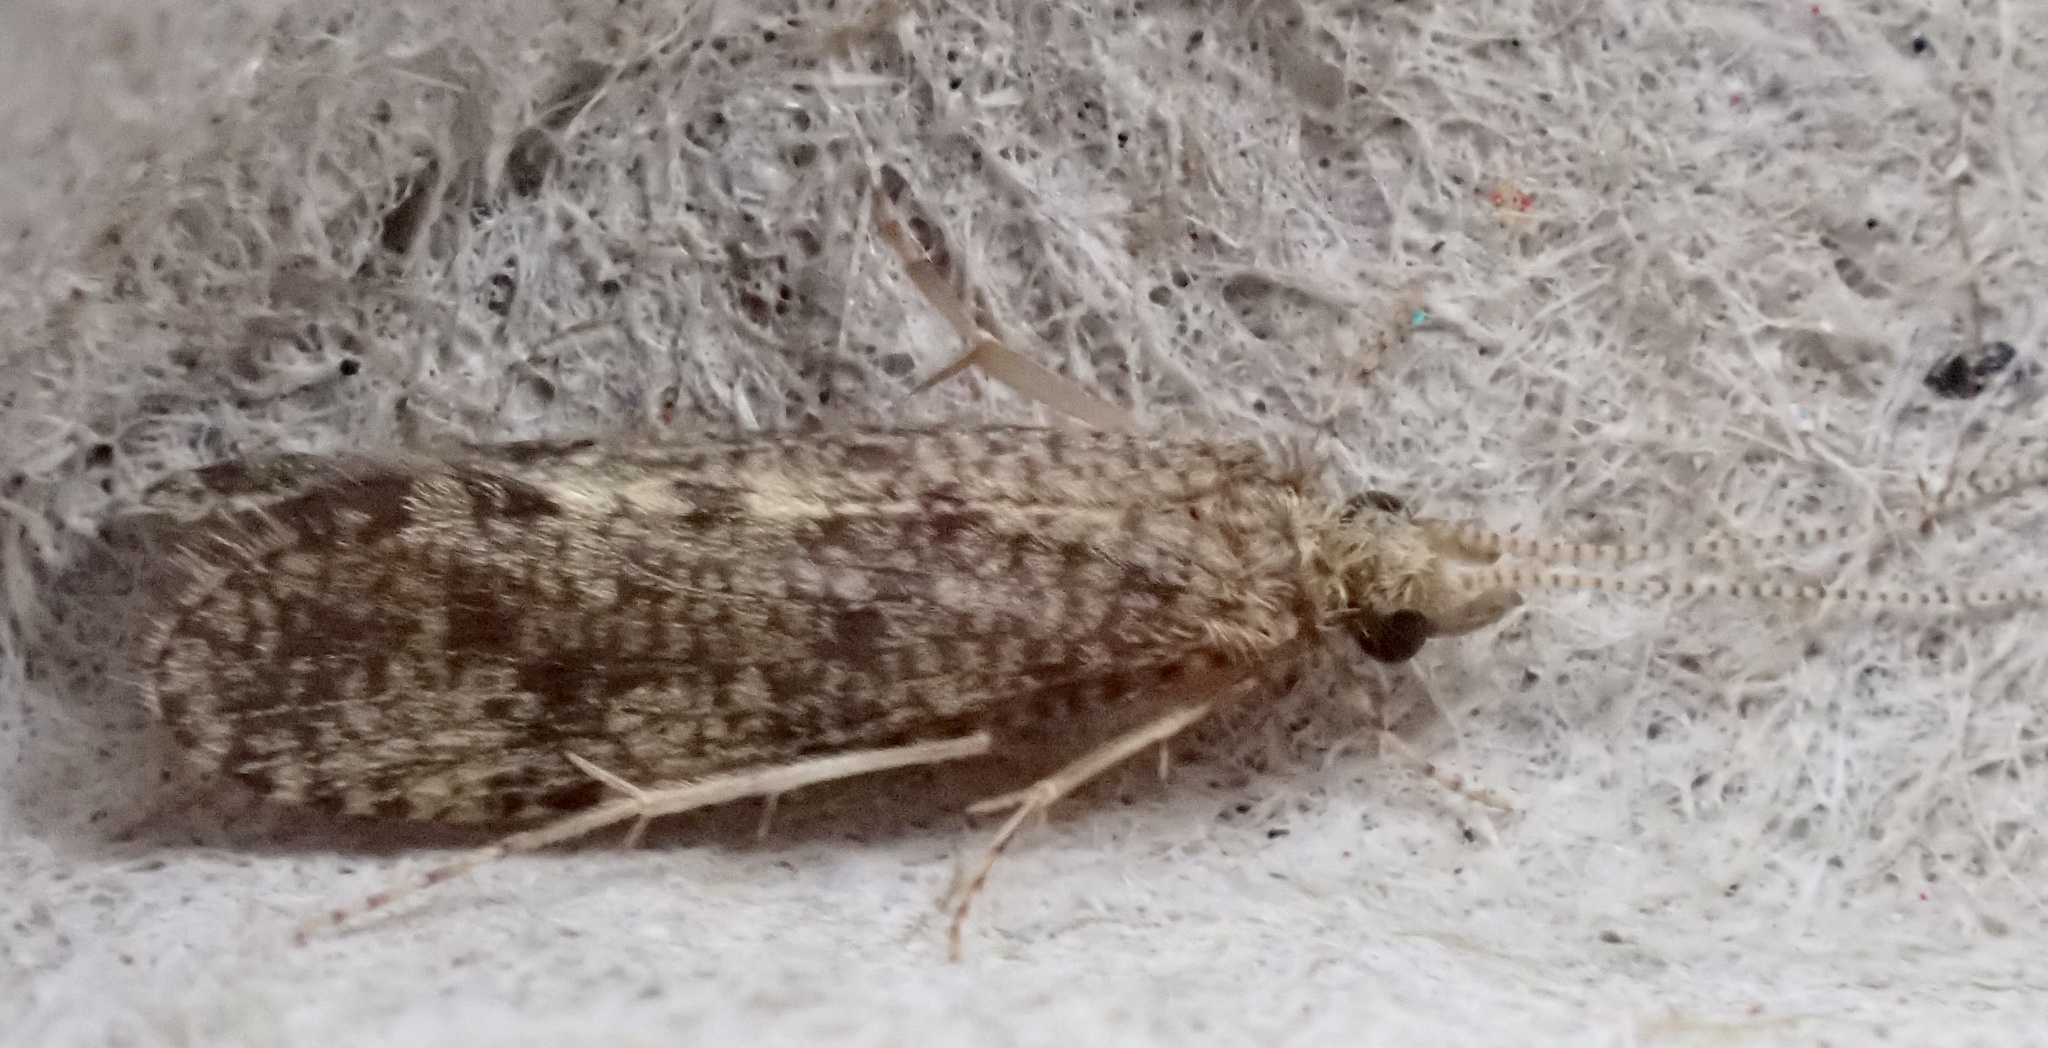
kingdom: Animalia
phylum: Arthropoda
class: Insecta
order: Trichoptera
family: Ecnomidae
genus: Ecnomus
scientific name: Ecnomus tenellus
